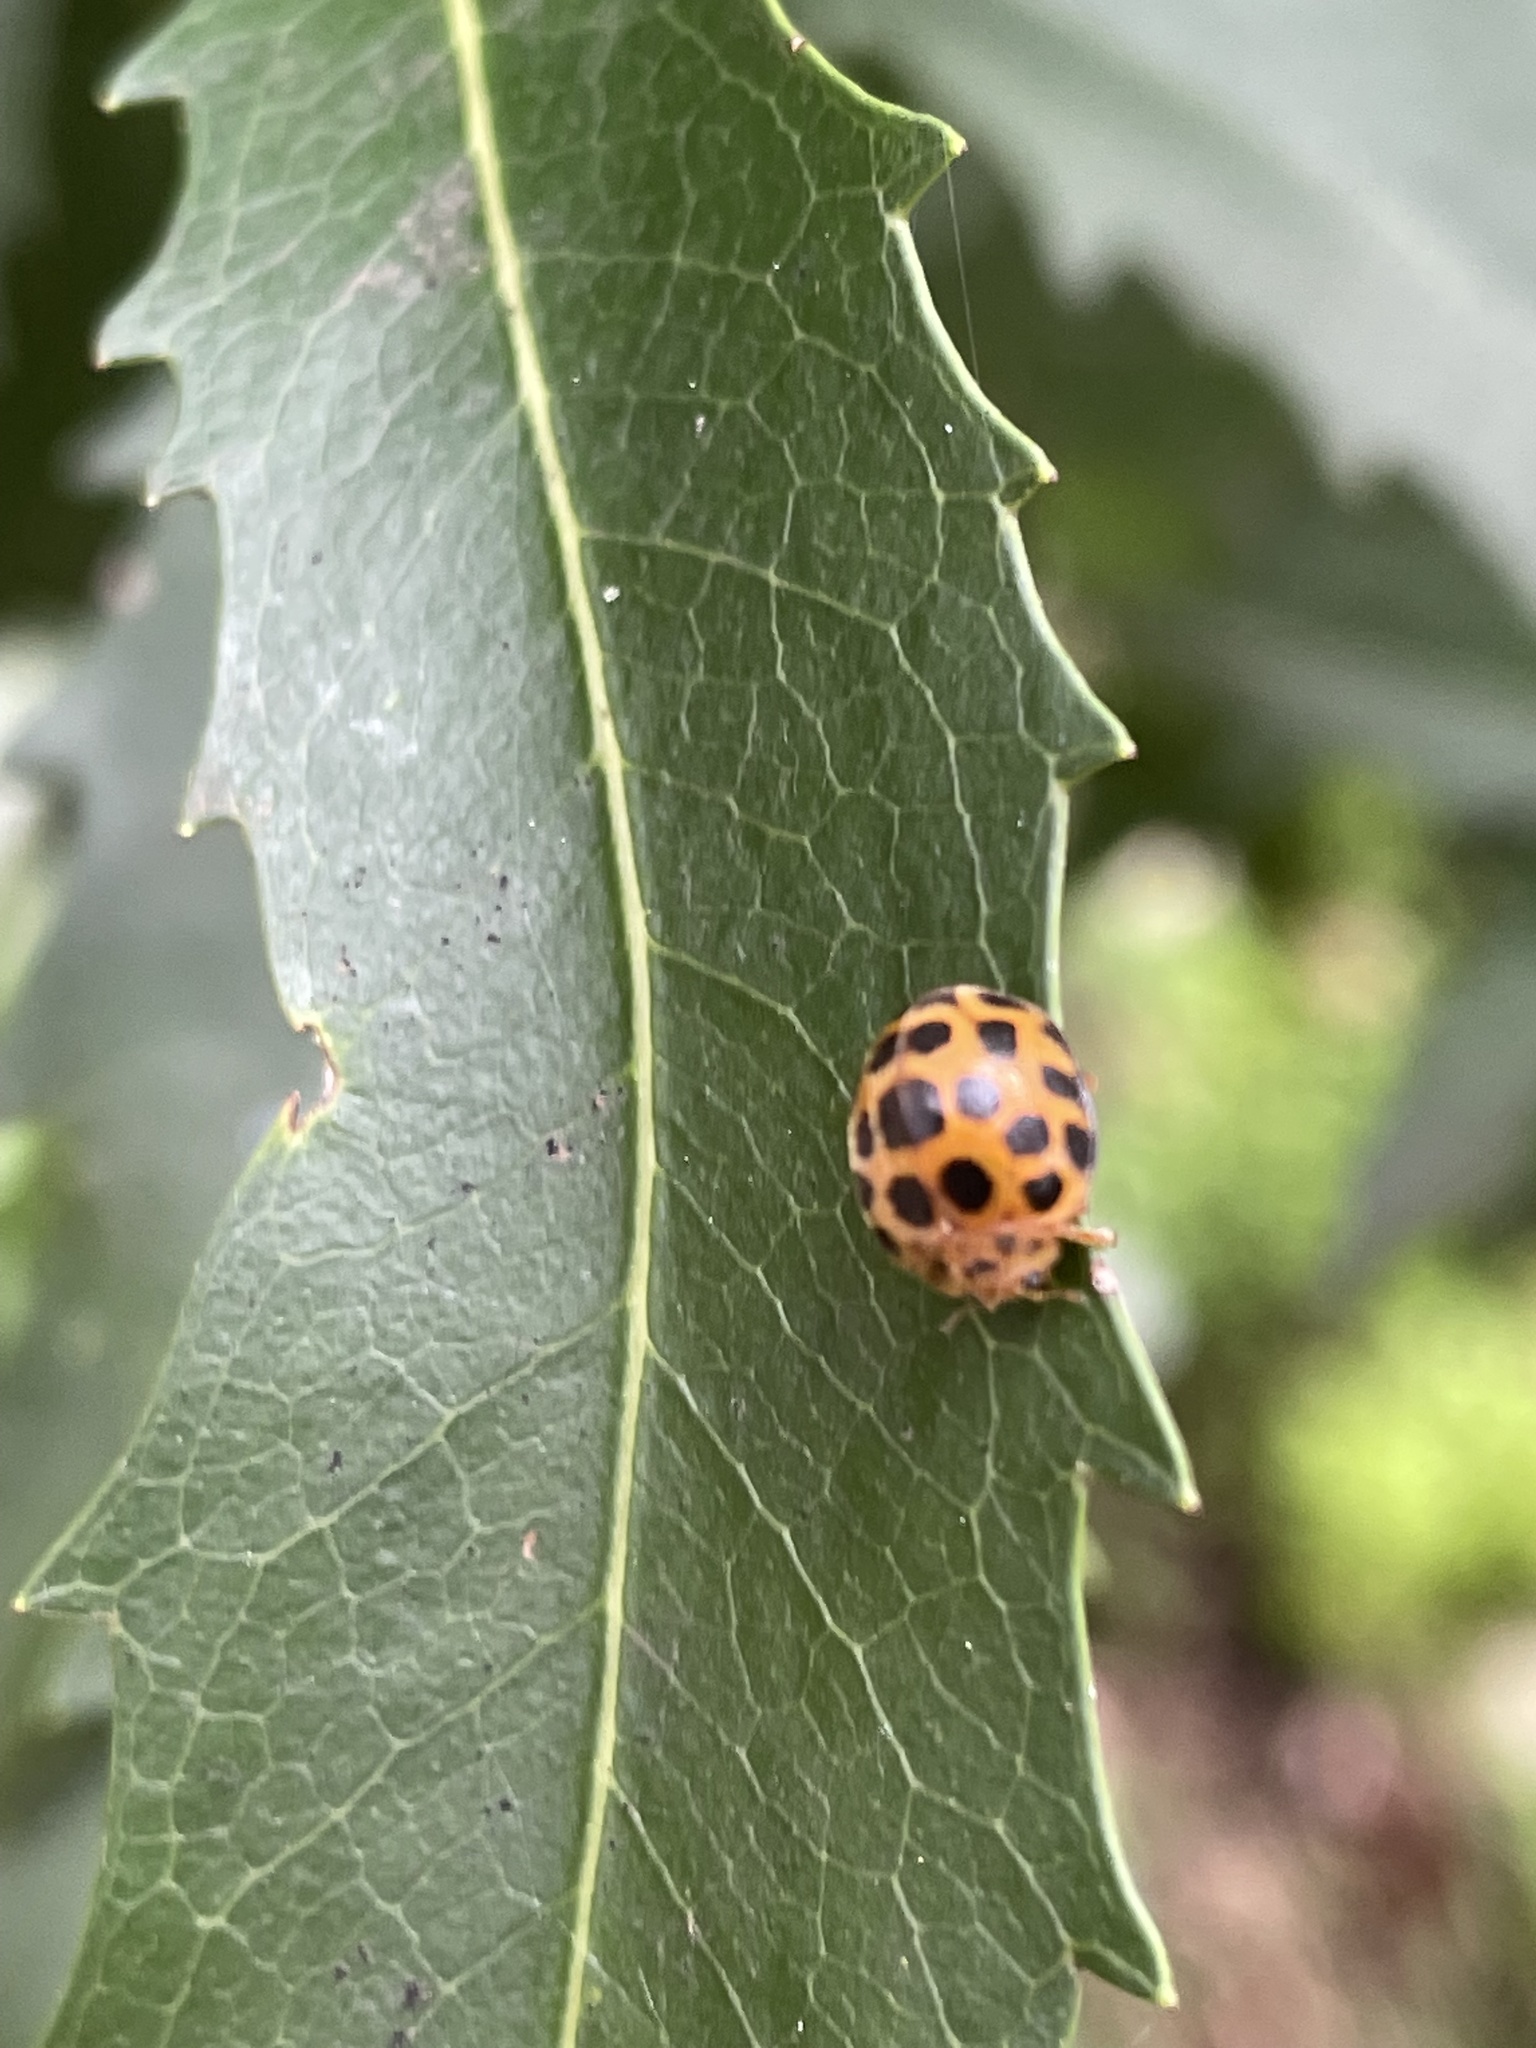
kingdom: Animalia
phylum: Arthropoda
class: Insecta
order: Coleoptera
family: Coccinellidae
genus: Henosepilachna
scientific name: Henosepilachna vigintioctopunctata
